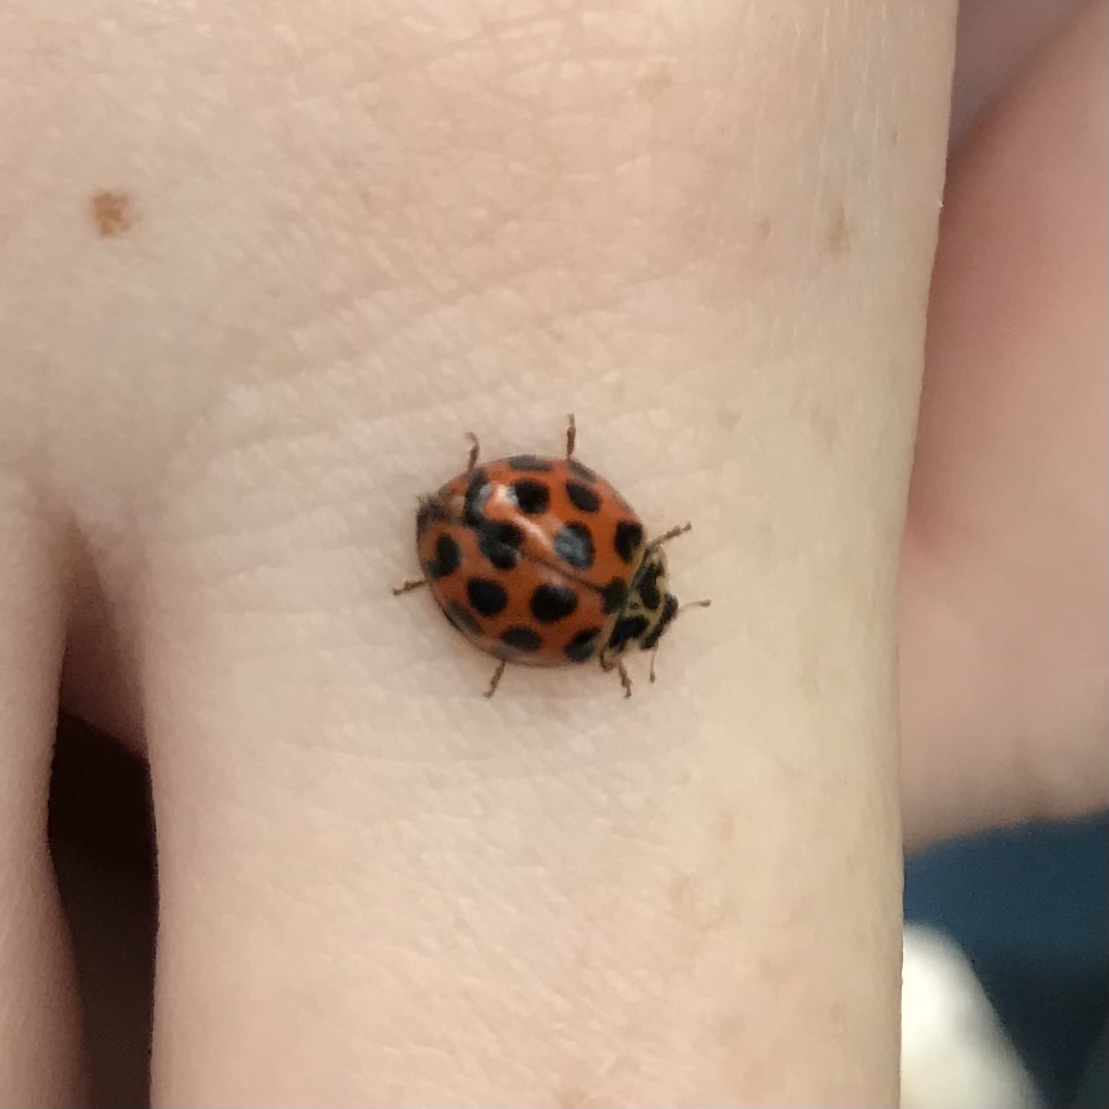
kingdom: Animalia
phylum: Arthropoda
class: Insecta
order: Coleoptera
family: Coccinellidae
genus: Harmonia
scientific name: Harmonia conformis
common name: Common spotted ladybird beetle
